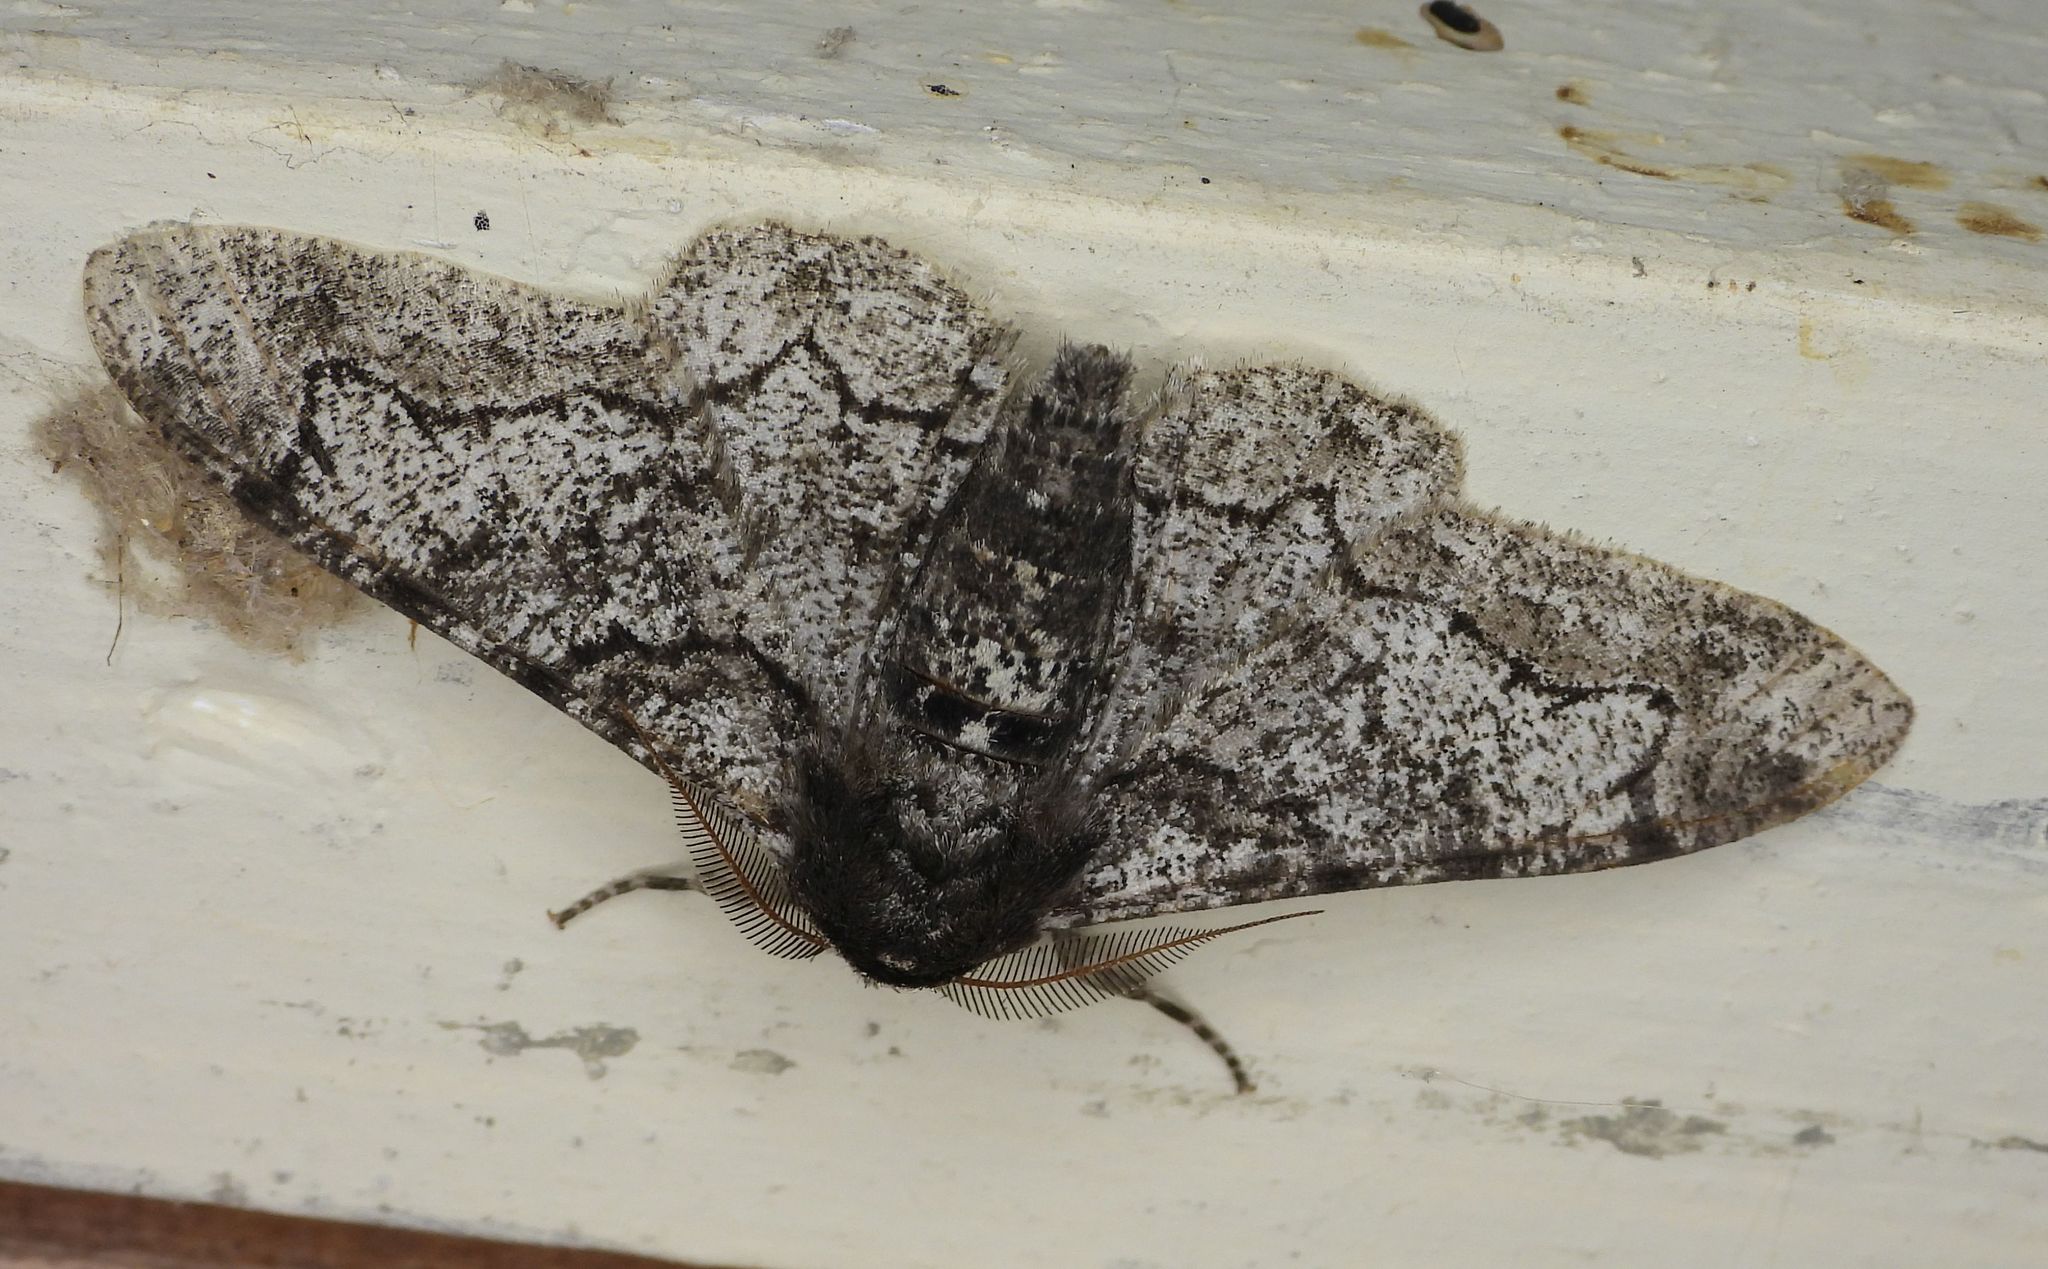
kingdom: Animalia
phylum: Arthropoda
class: Insecta
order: Lepidoptera
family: Geometridae
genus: Biston
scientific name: Biston betularia
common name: Peppered moth
